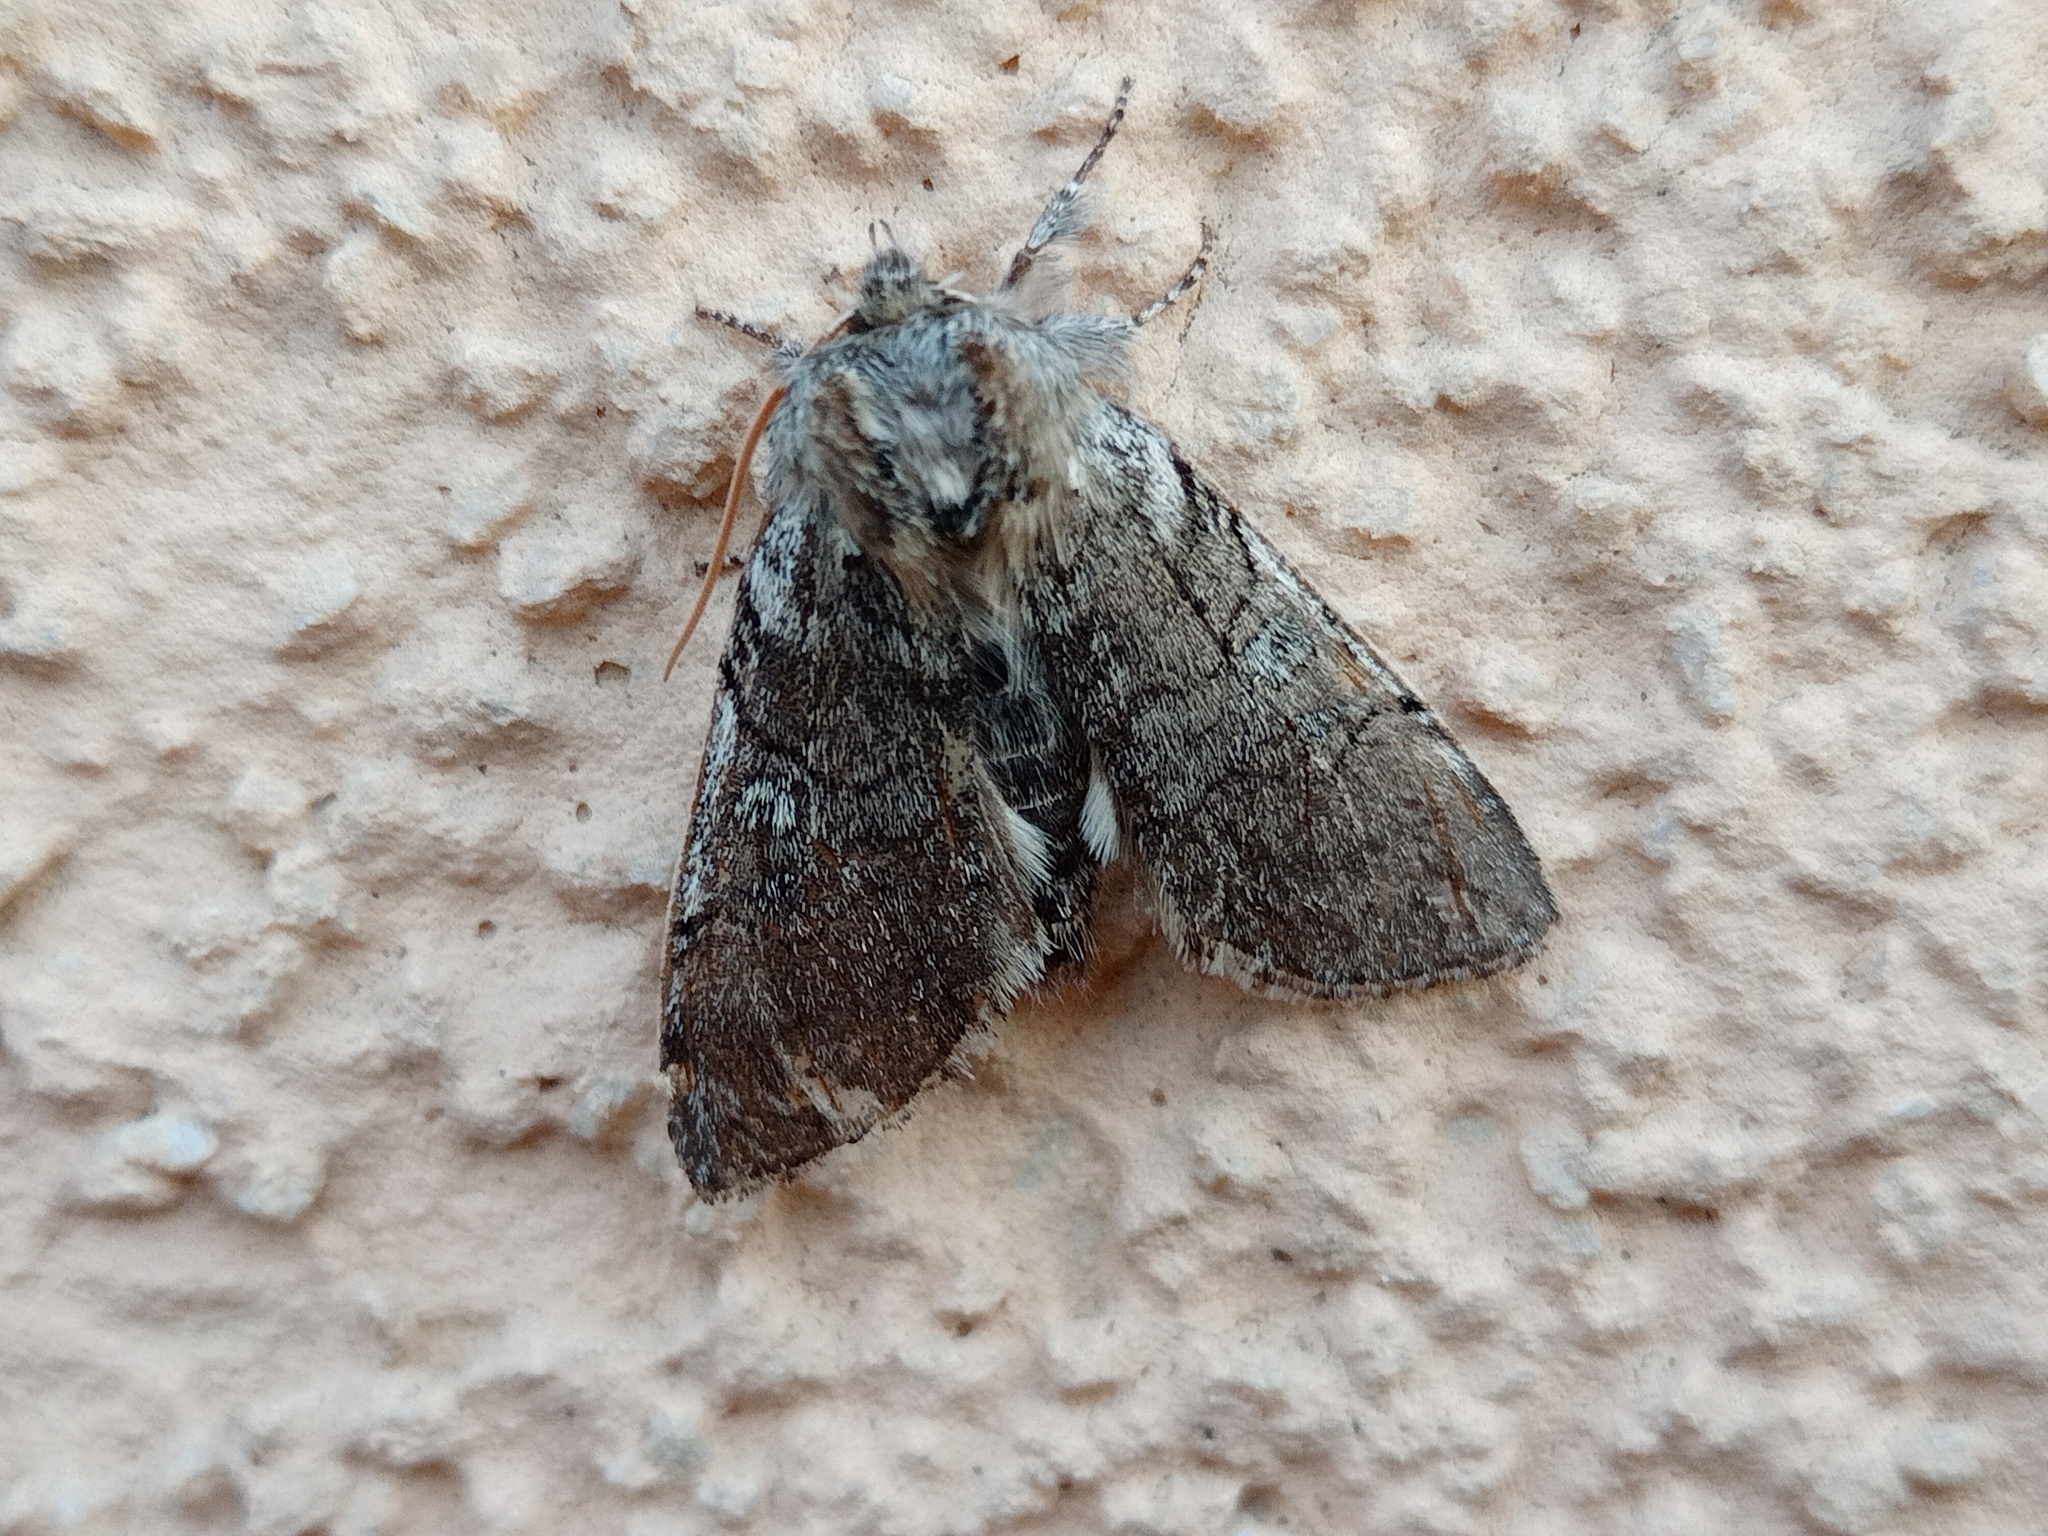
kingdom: Animalia
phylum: Arthropoda
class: Insecta
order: Lepidoptera
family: Drepanidae
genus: Achlya
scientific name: Achlya flavicornis
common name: Yellow horned
